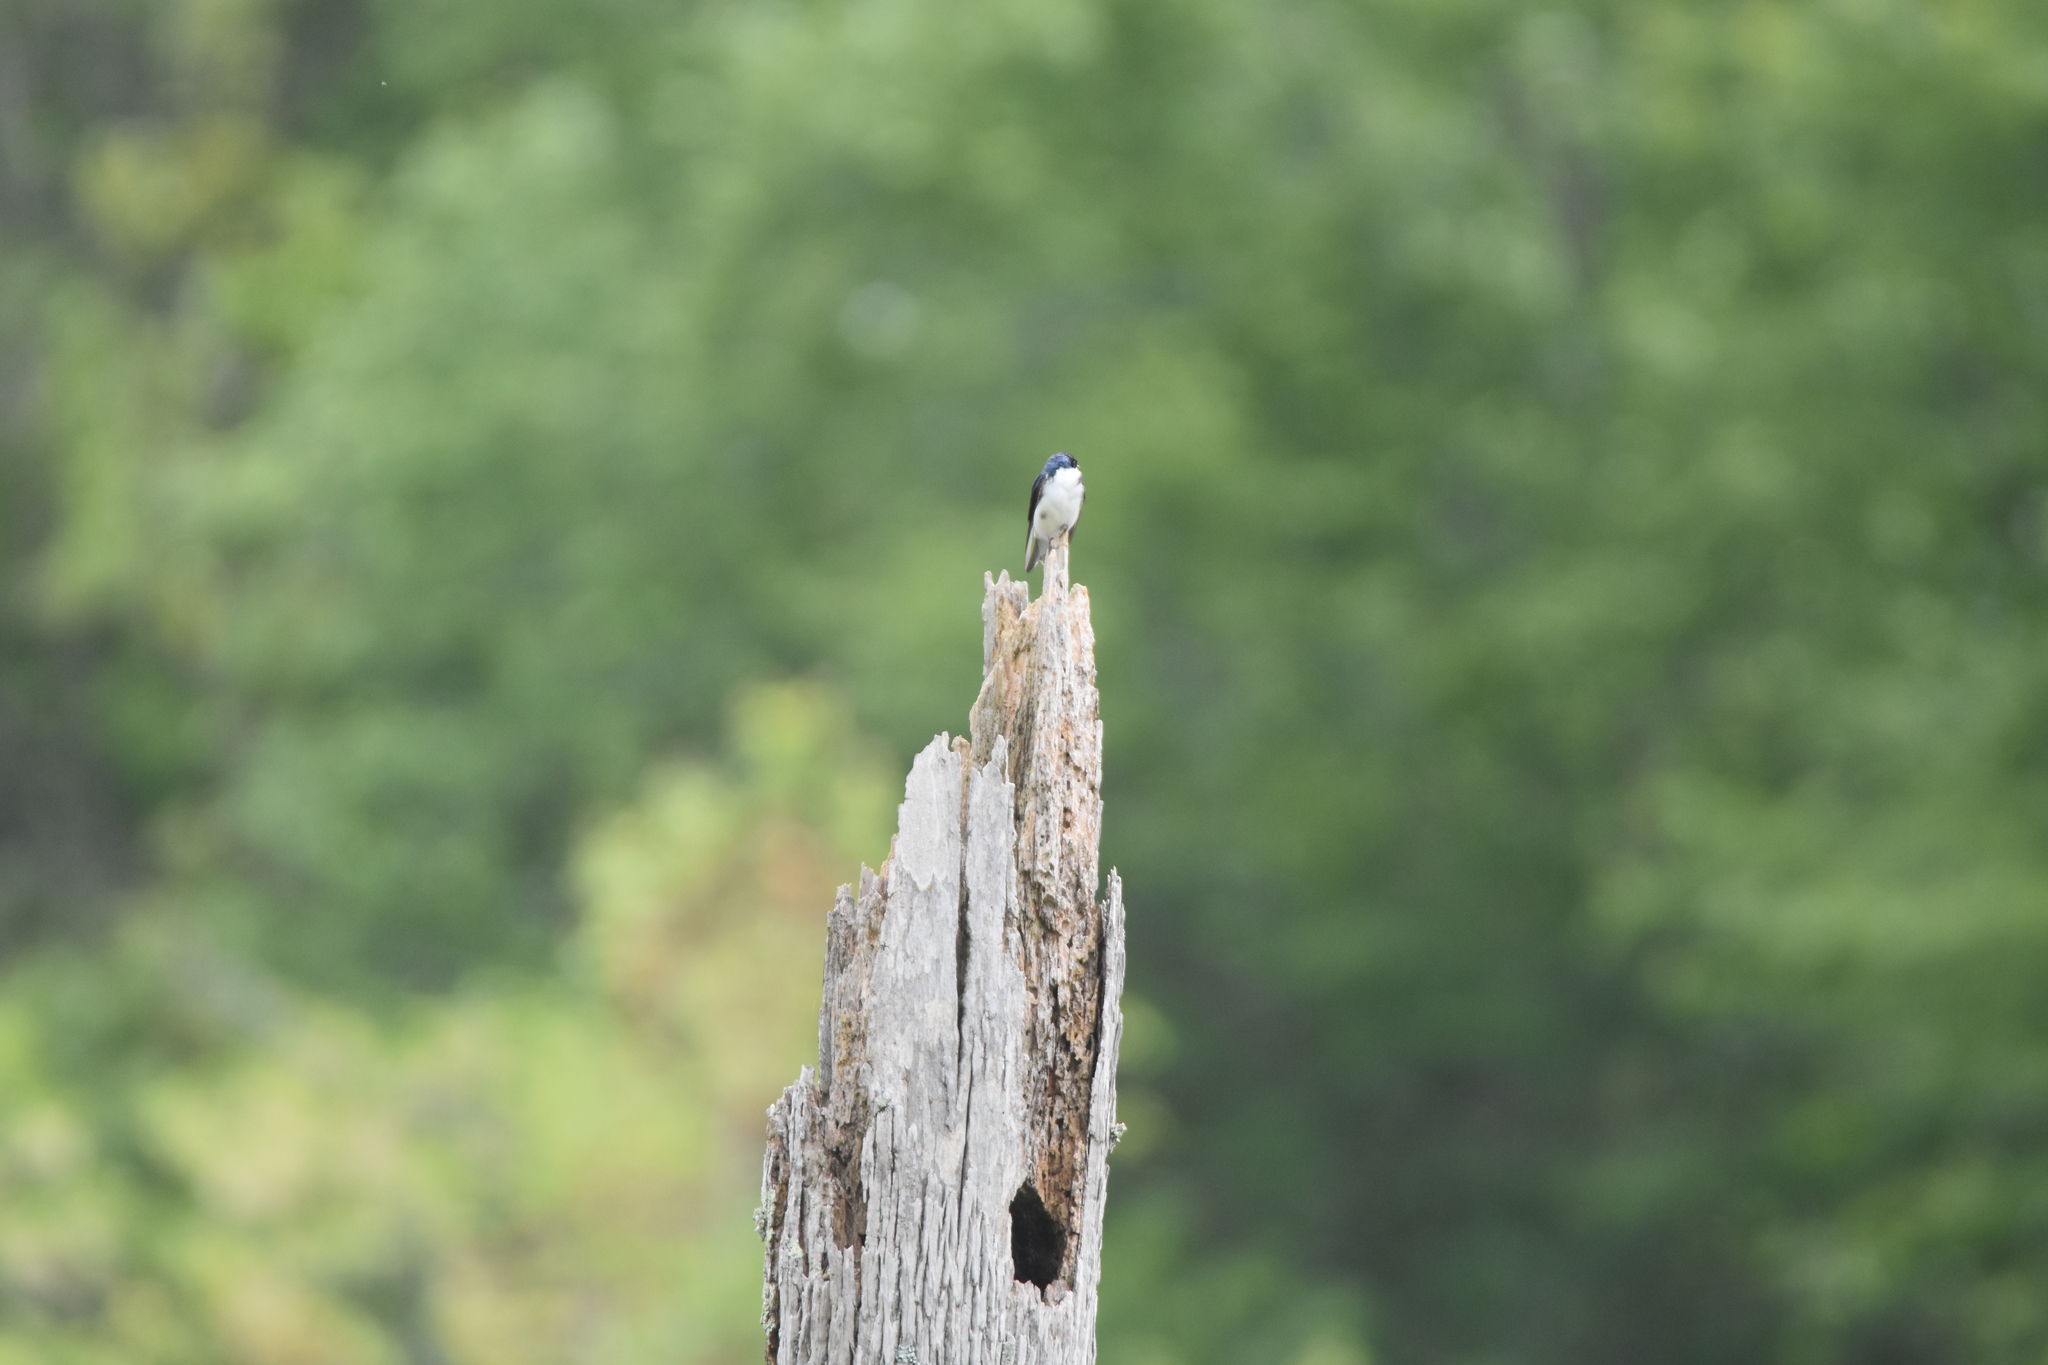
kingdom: Animalia
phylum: Chordata
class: Aves
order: Passeriformes
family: Hirundinidae
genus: Tachycineta
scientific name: Tachycineta bicolor
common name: Tree swallow
